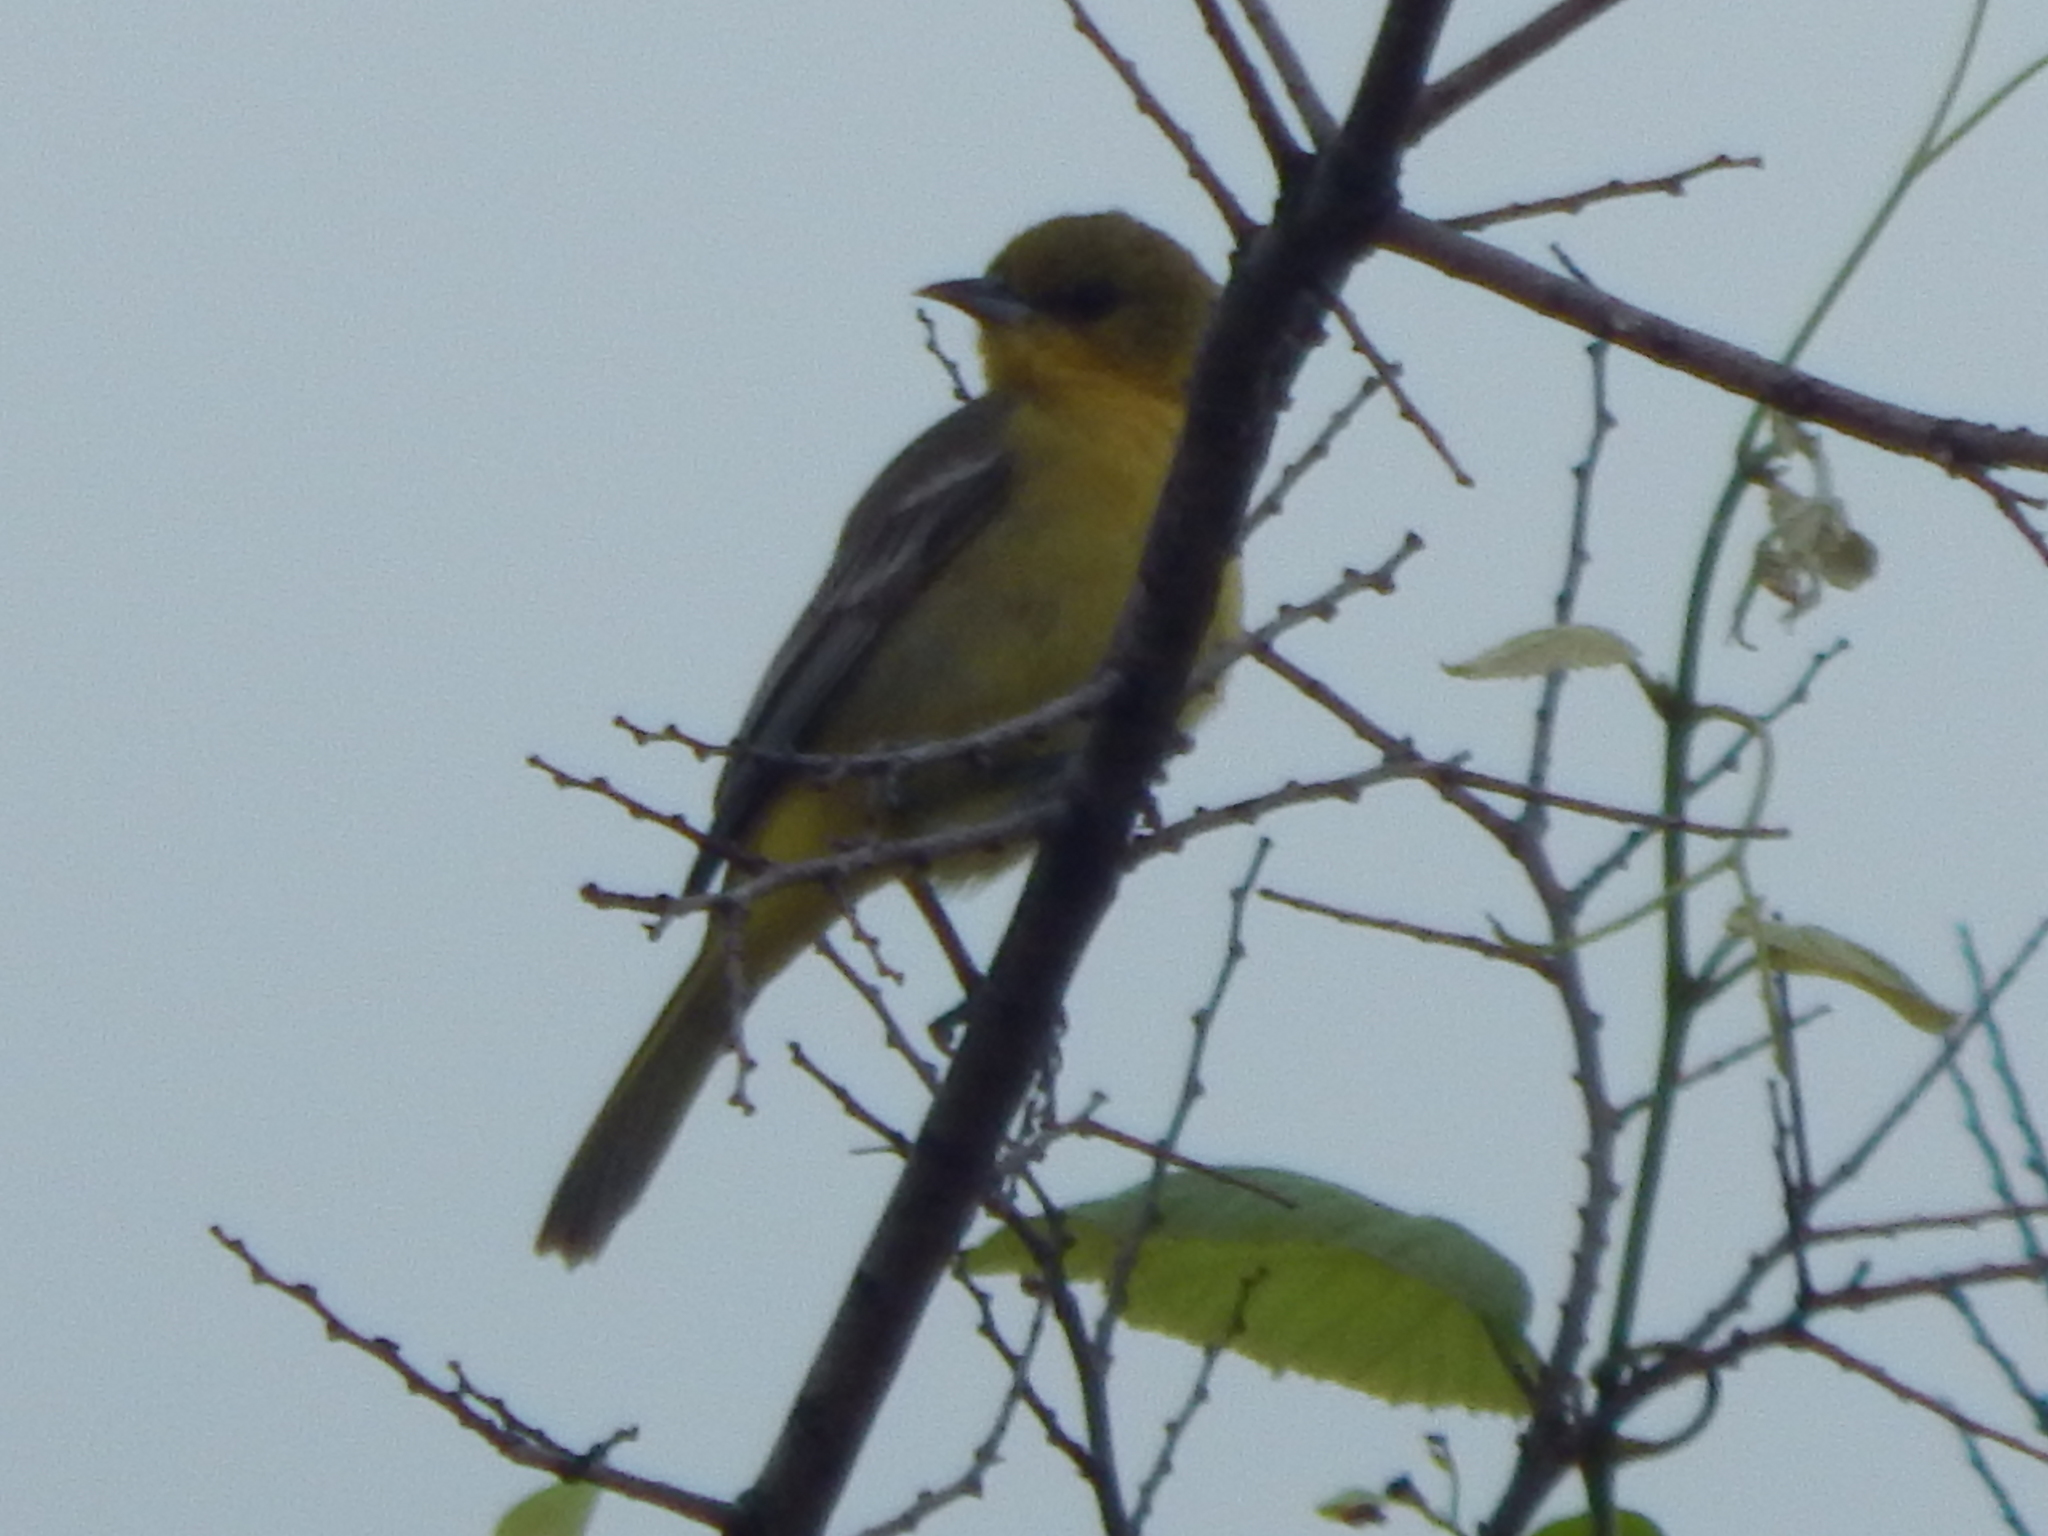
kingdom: Animalia
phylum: Chordata
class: Aves
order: Passeriformes
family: Icteridae
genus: Icterus
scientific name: Icterus spurius
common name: Orchard oriole
